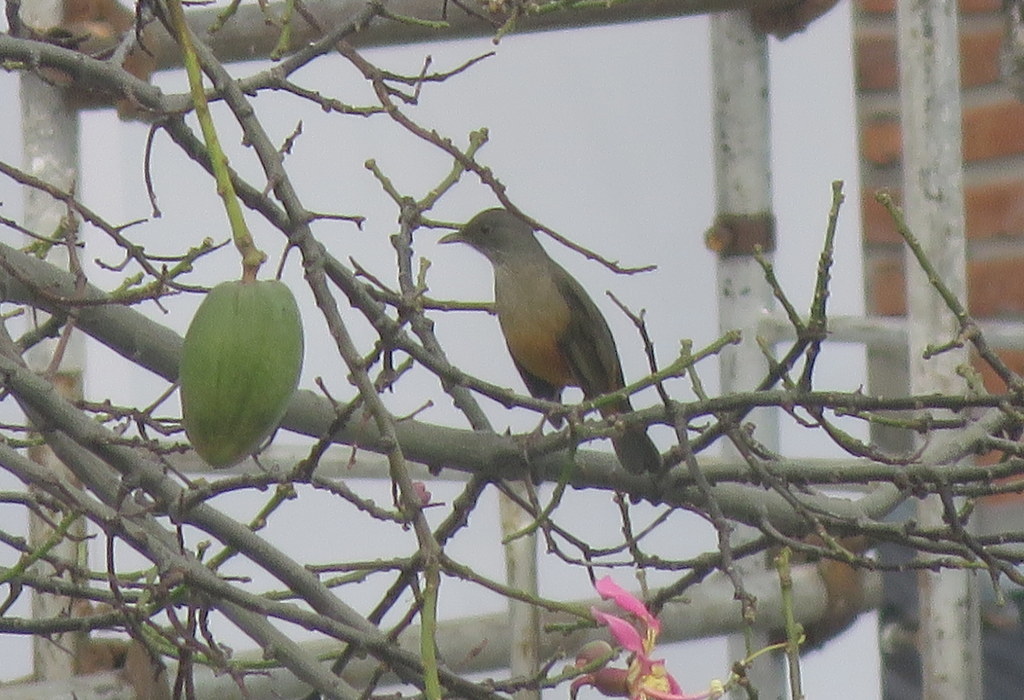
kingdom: Animalia
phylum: Chordata
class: Aves
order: Passeriformes
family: Turdidae
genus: Turdus
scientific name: Turdus rufiventris
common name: Rufous-bellied thrush
